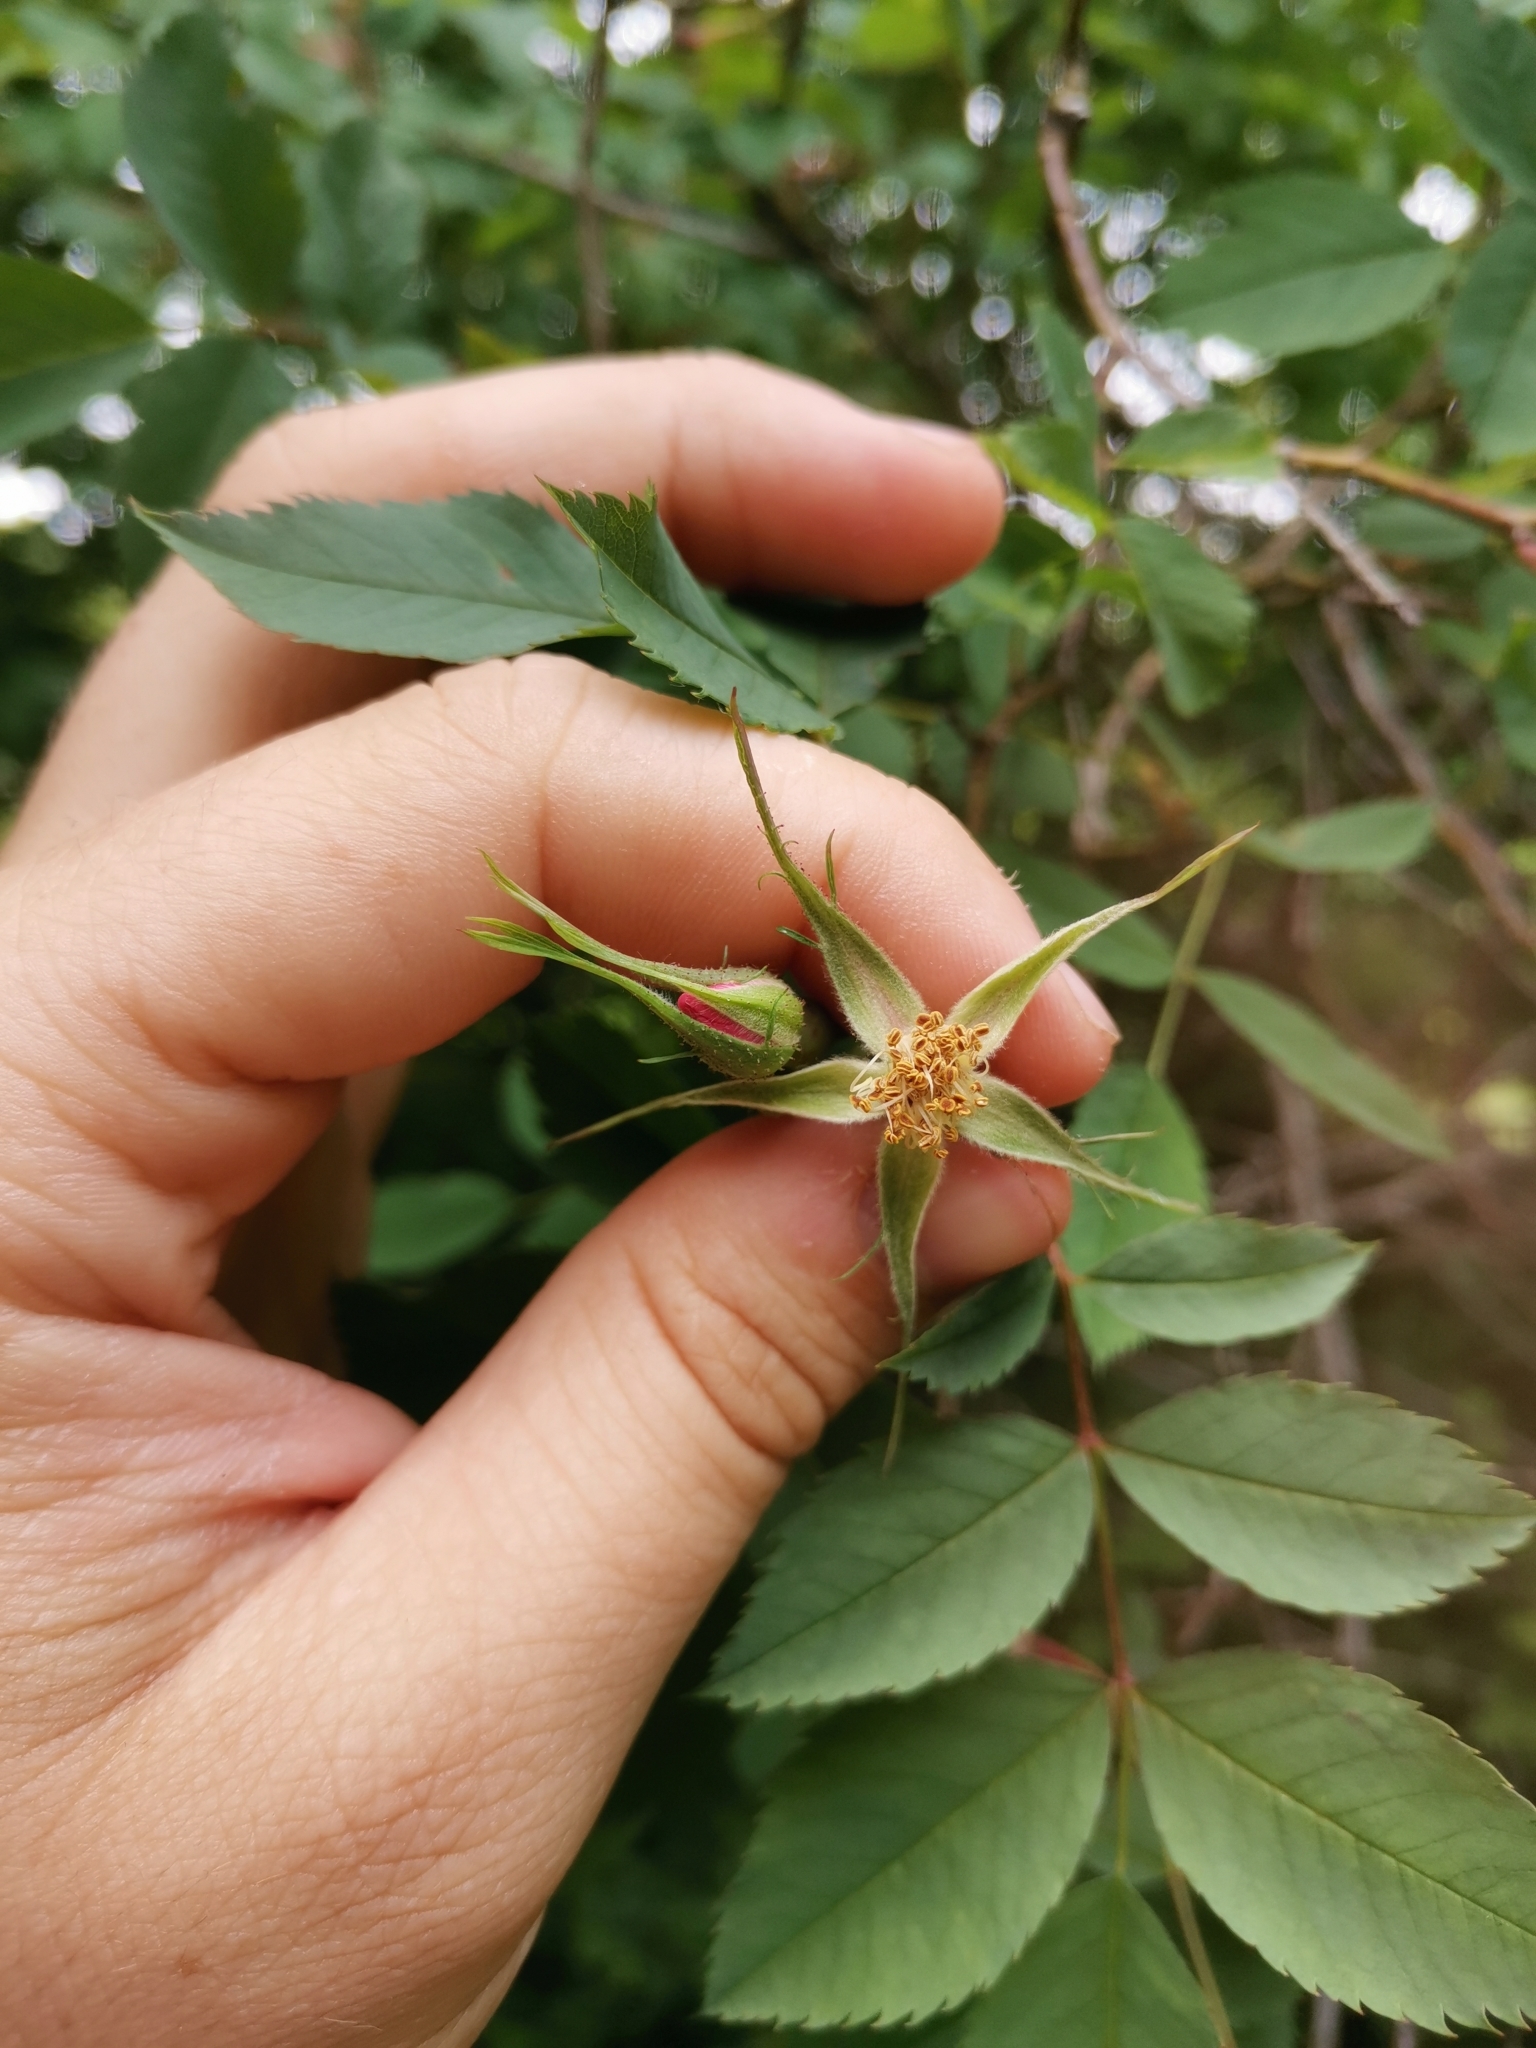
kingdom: Plantae
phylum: Tracheophyta
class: Magnoliopsida
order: Rosales
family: Rosaceae
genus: Rosa
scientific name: Rosa glauca
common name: Redleaf rose
